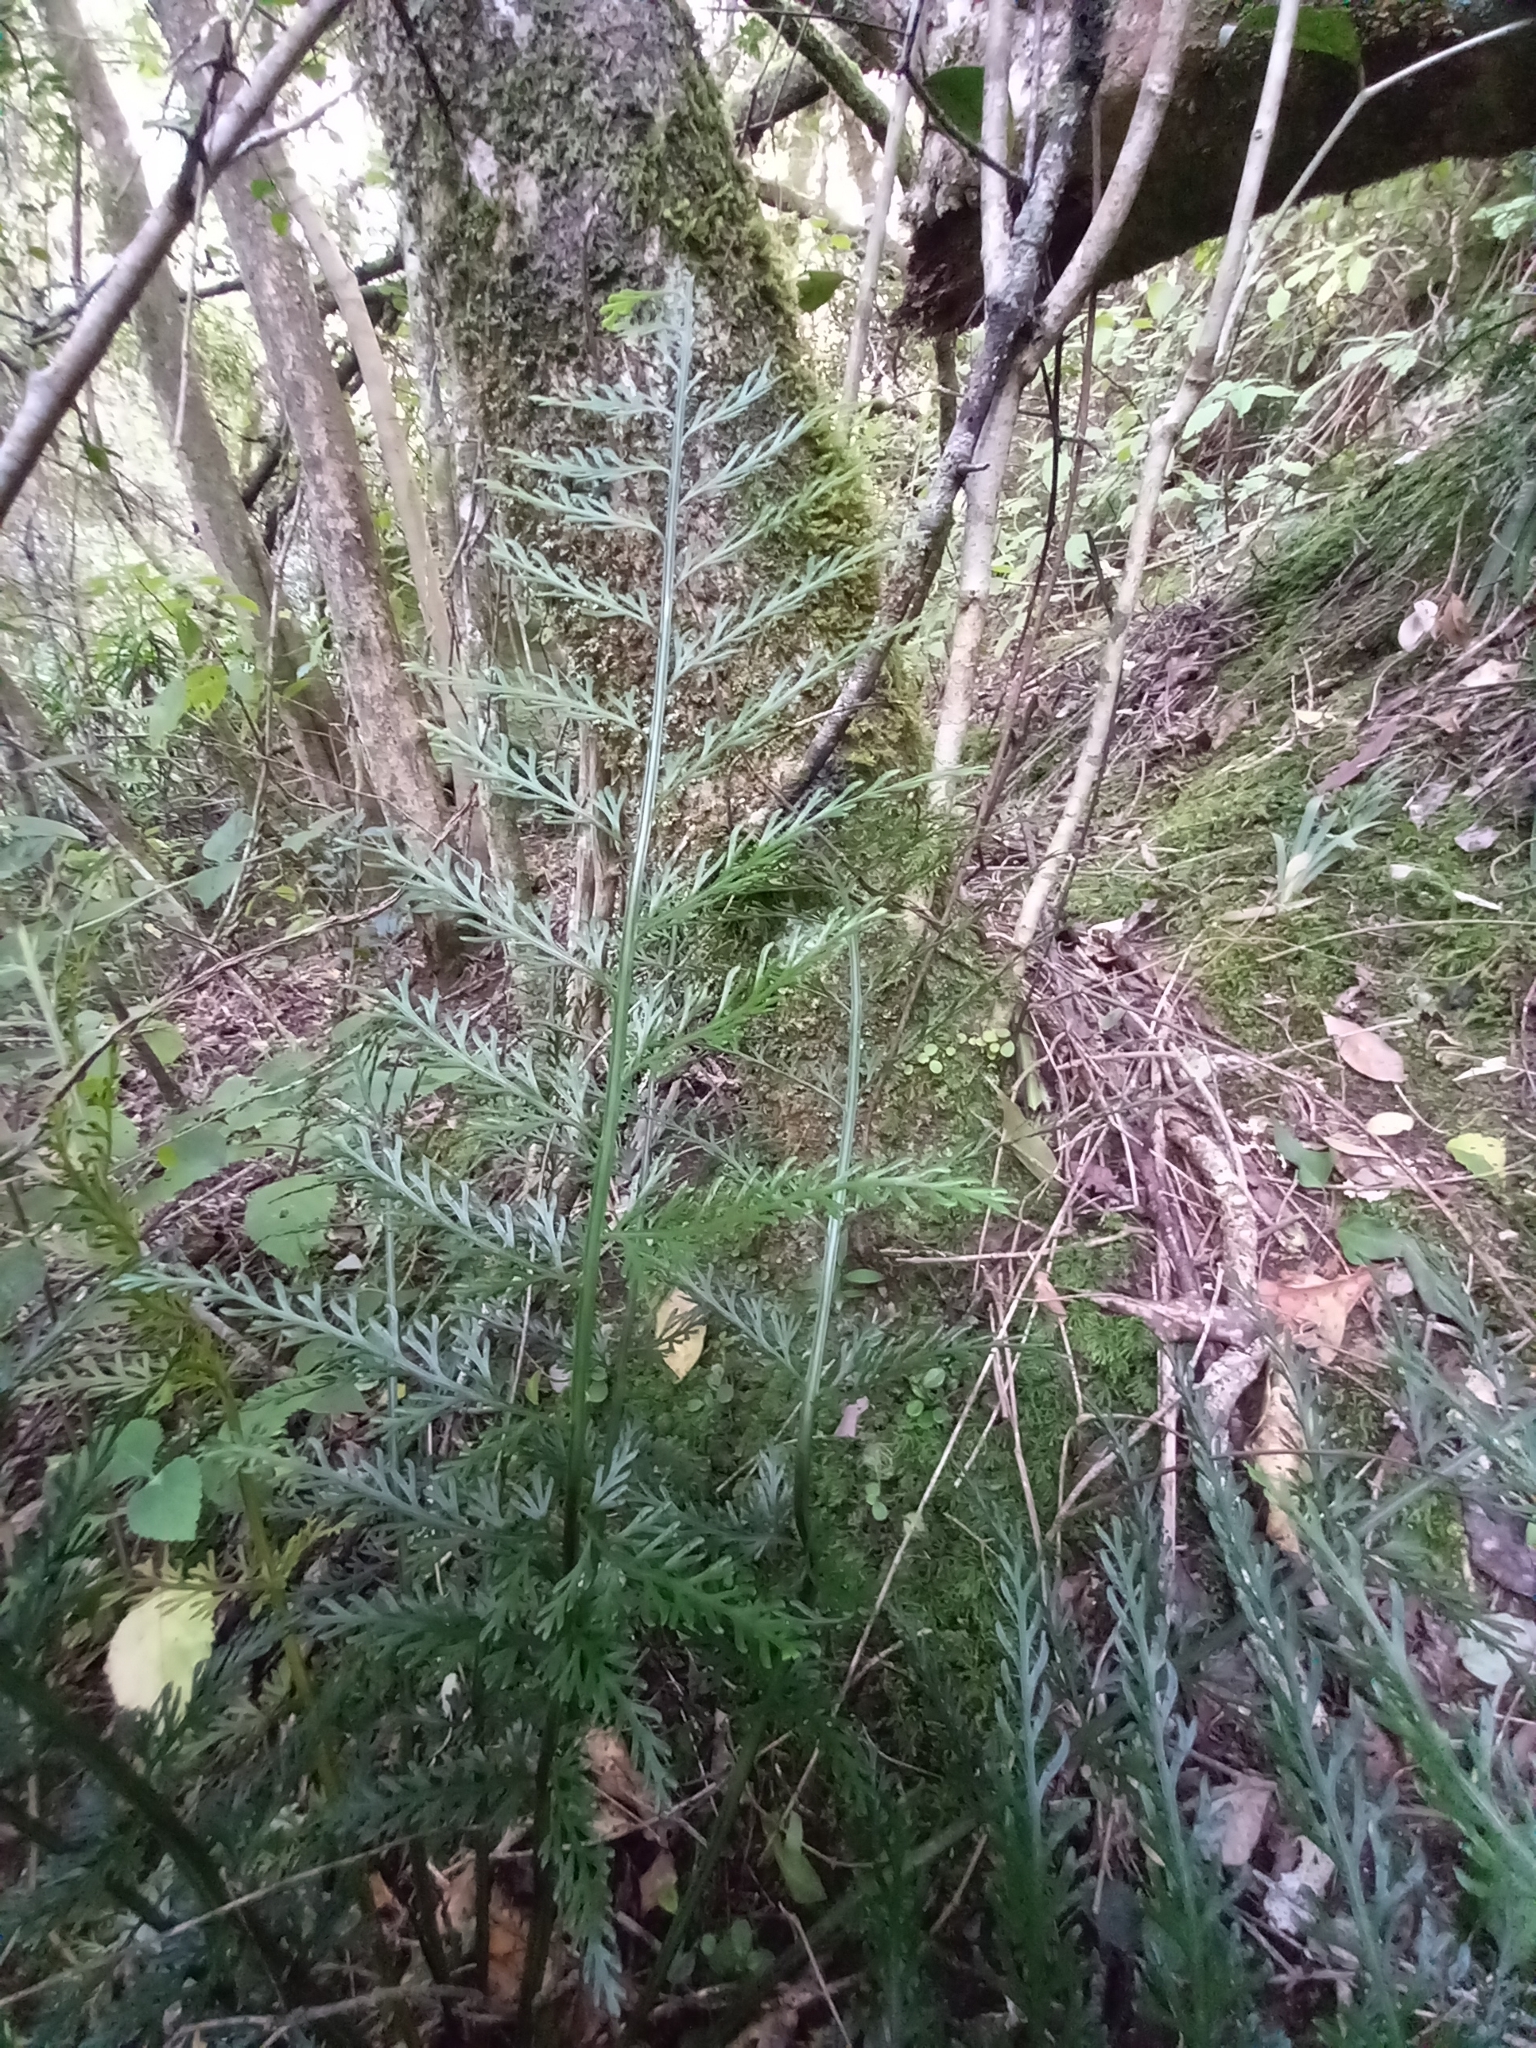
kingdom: Plantae
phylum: Tracheophyta
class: Polypodiopsida
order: Polypodiales
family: Aspleniaceae
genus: Asplenium
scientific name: Asplenium rutifolium
